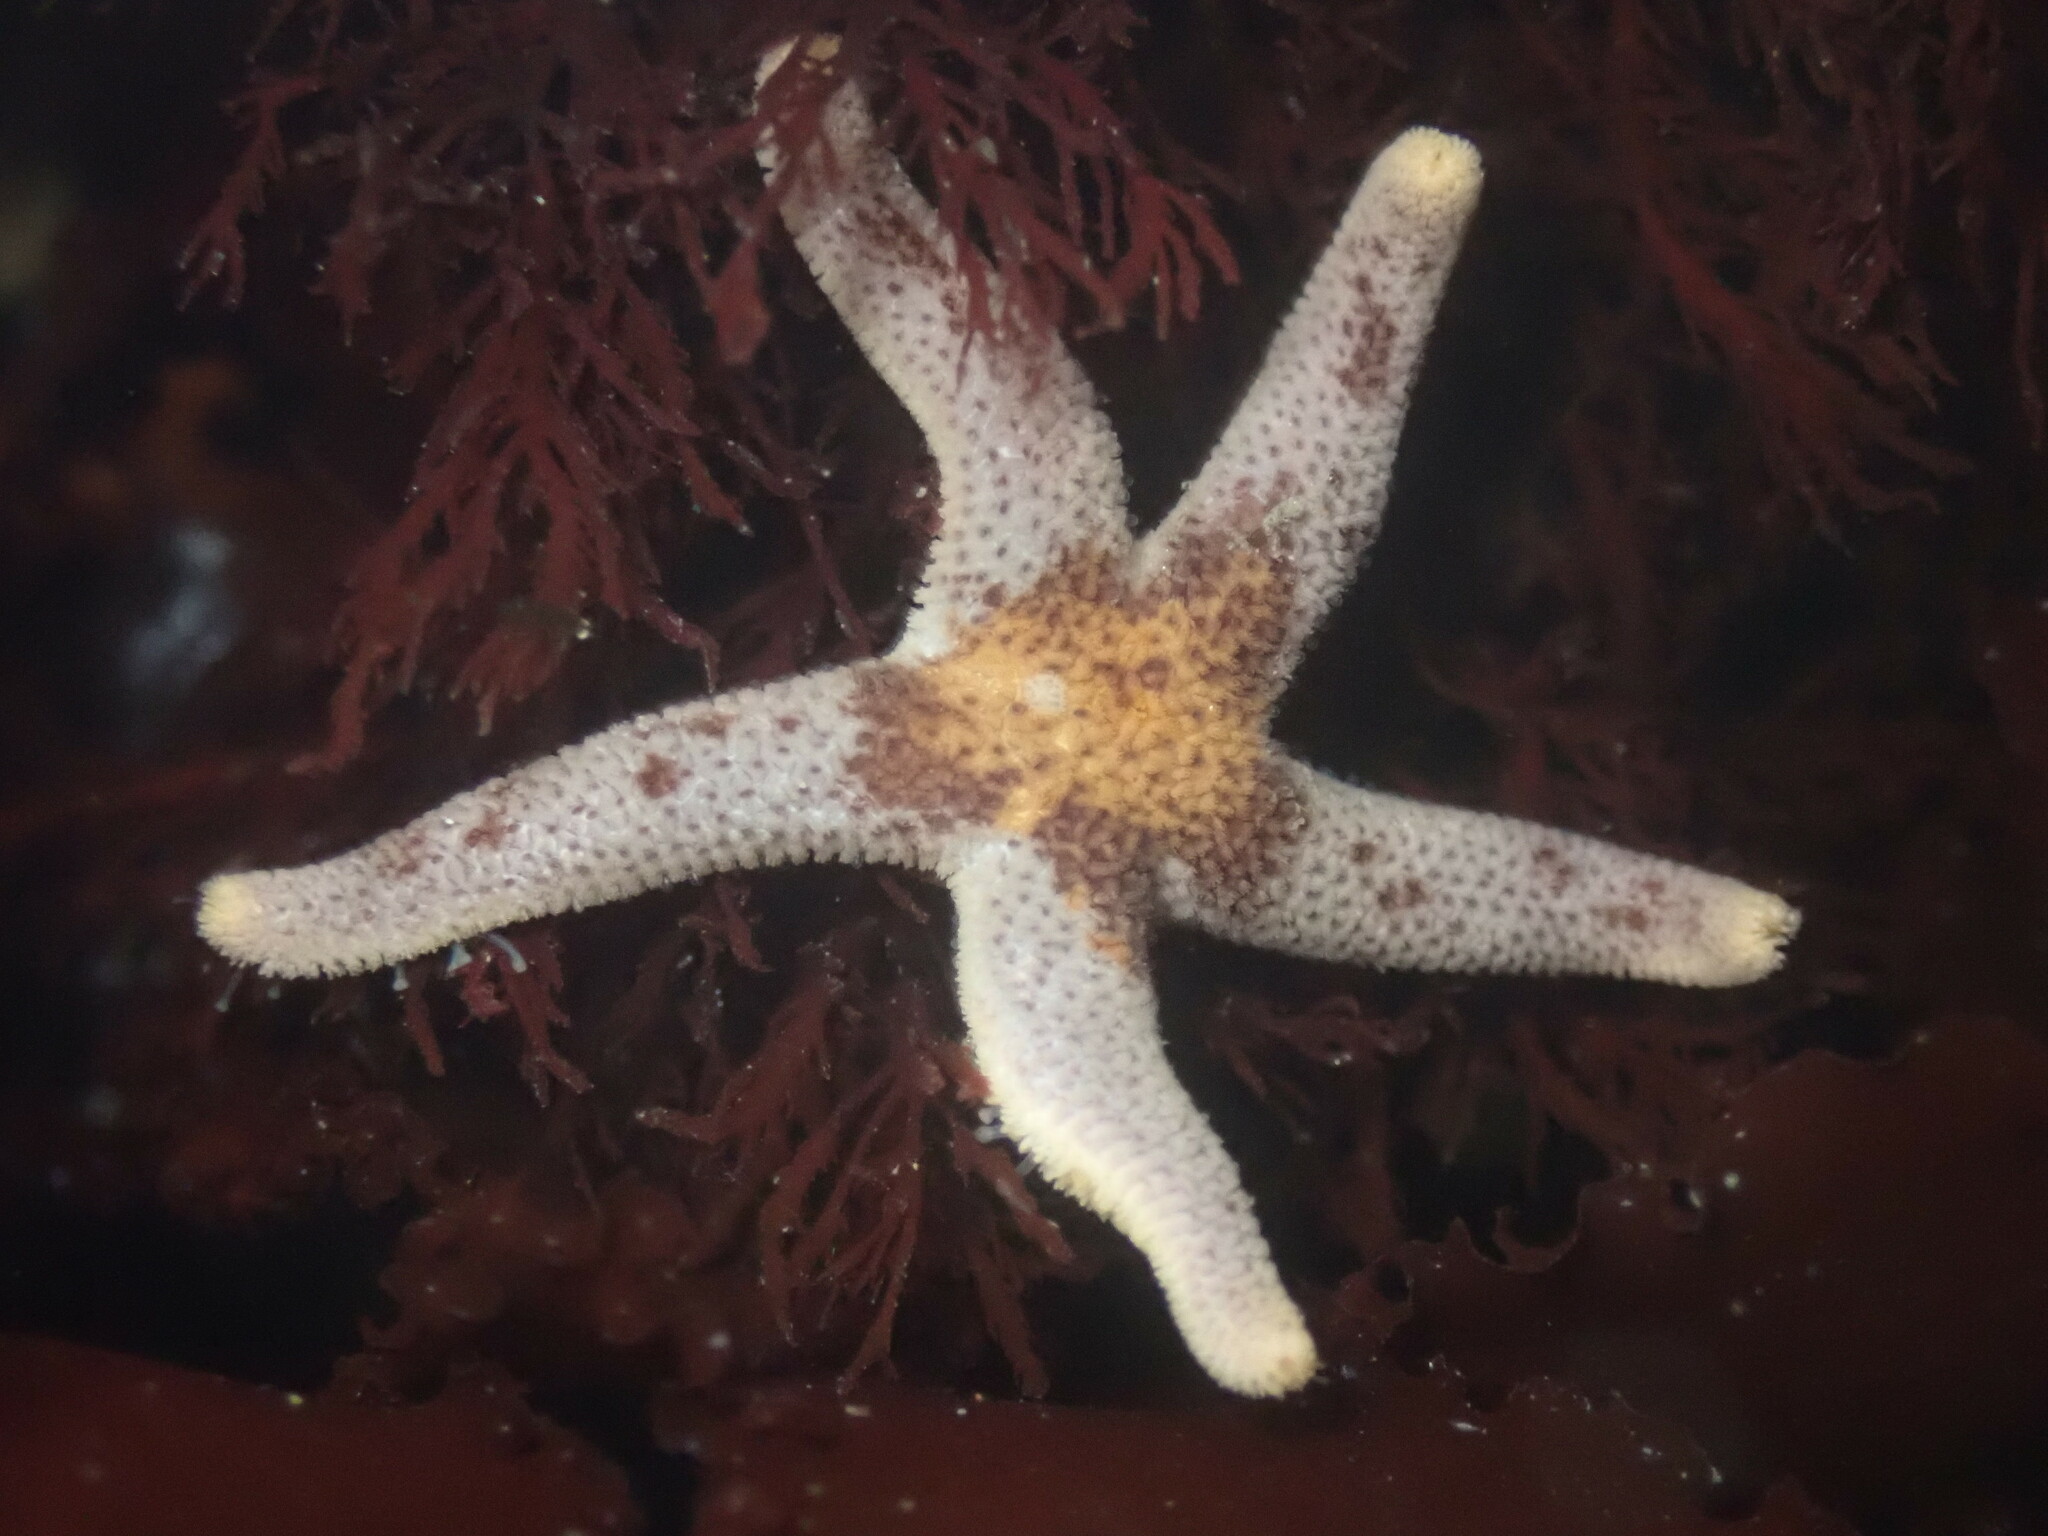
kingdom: Animalia
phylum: Echinodermata
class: Asteroidea
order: Spinulosida
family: Echinasteridae
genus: Henricia
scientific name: Henricia pumila
